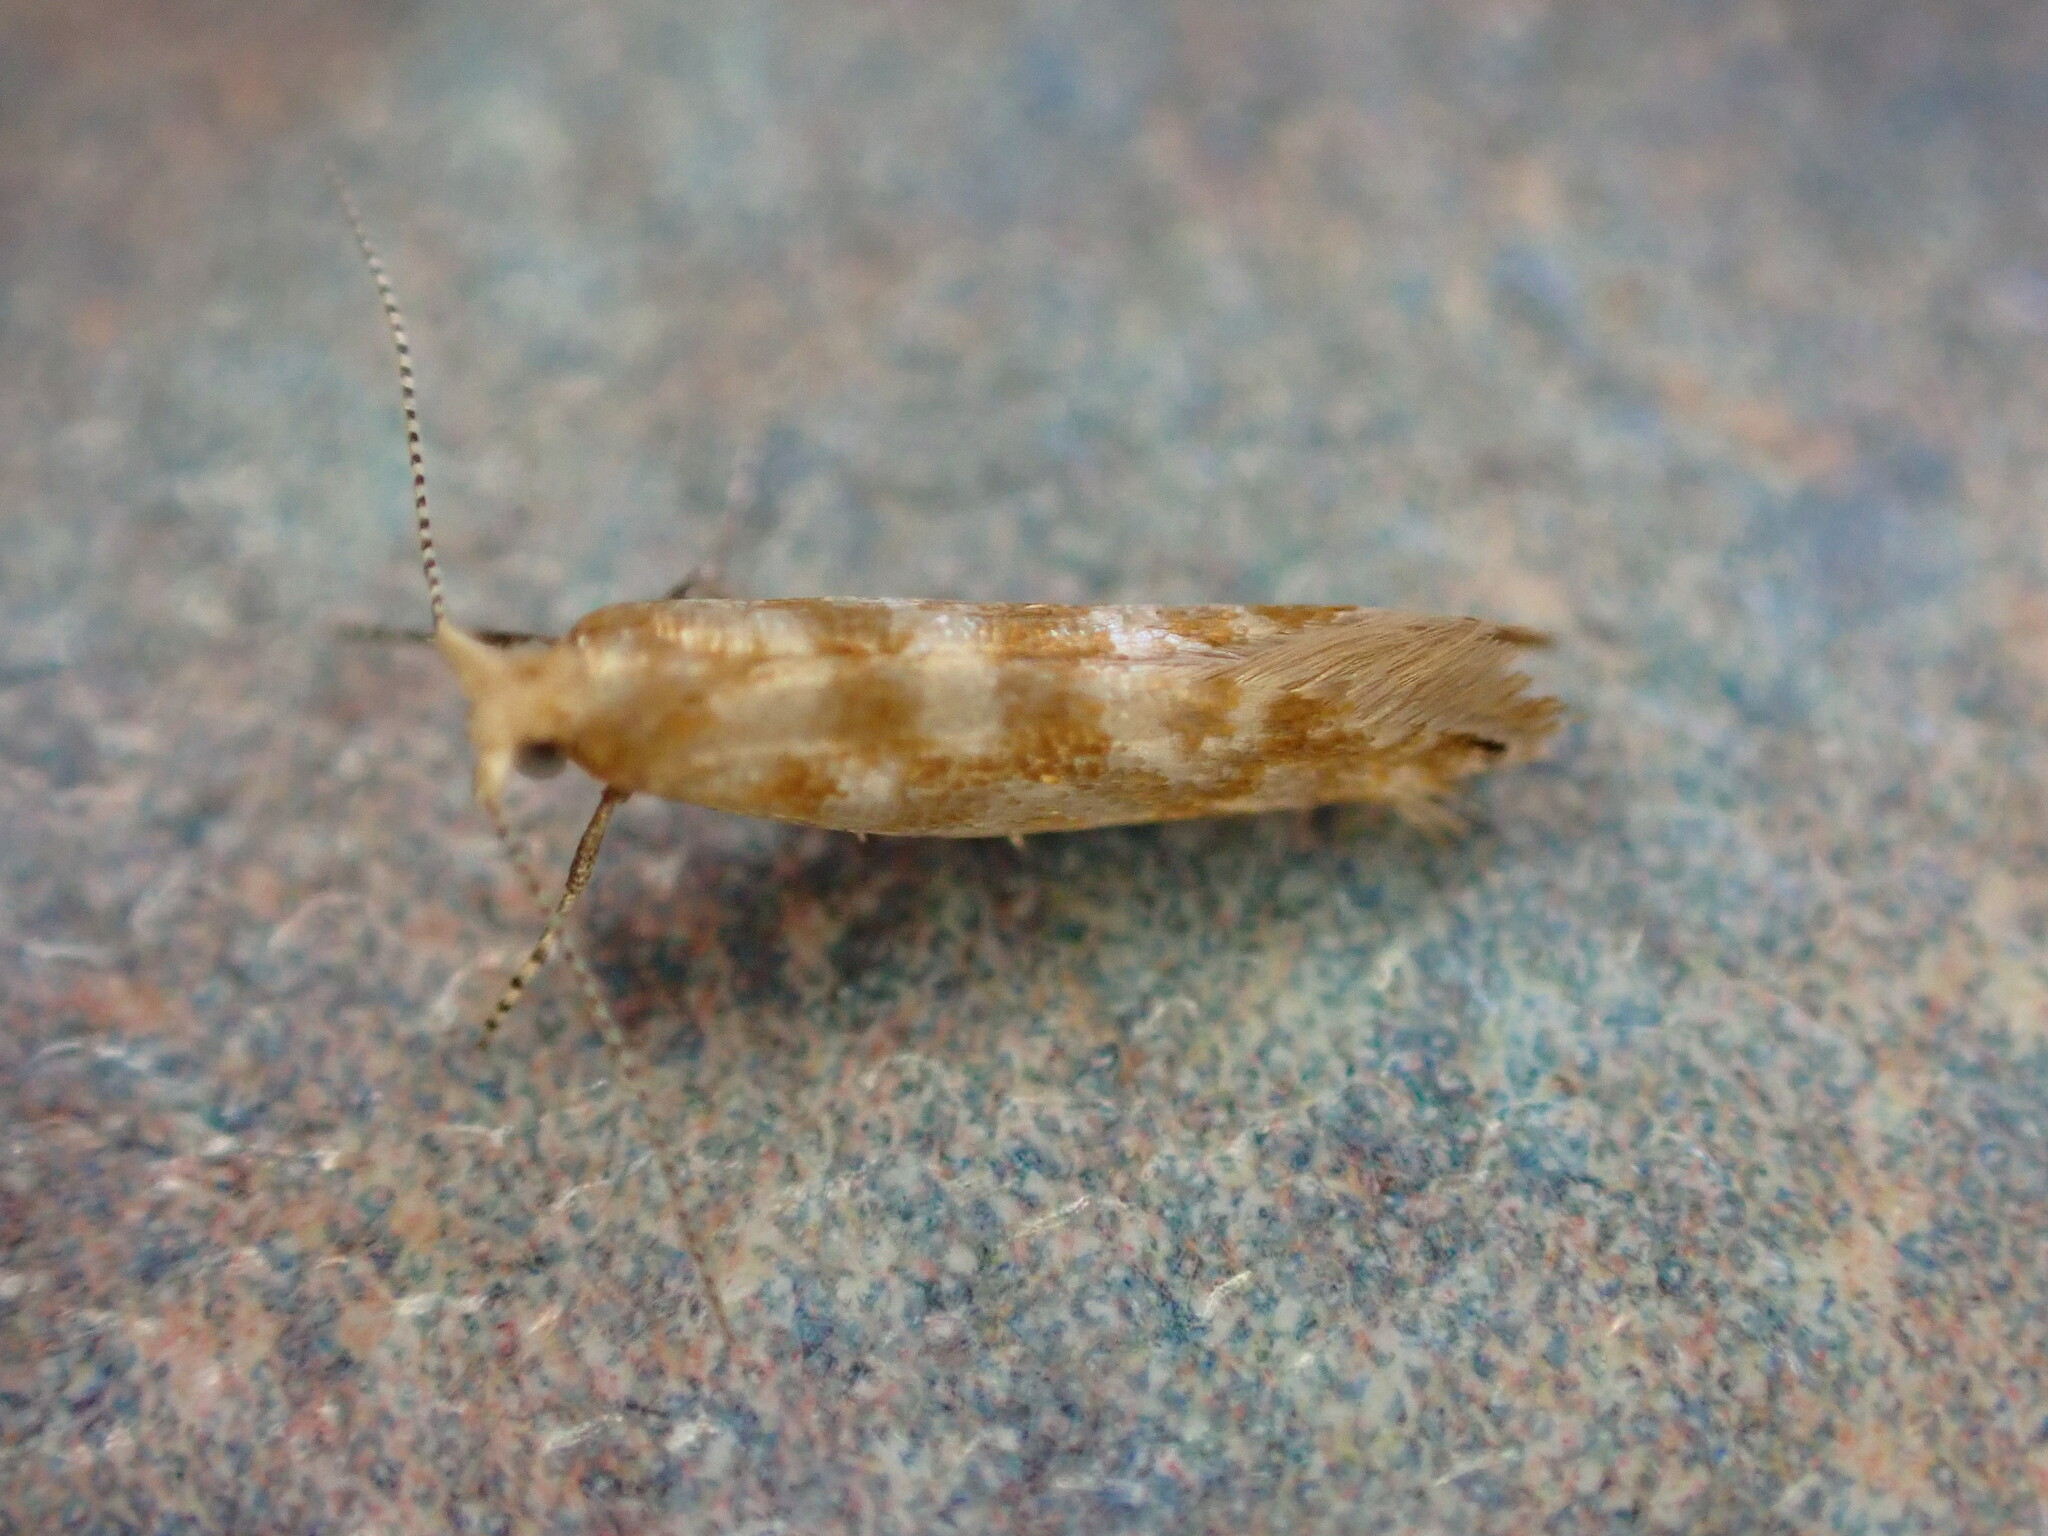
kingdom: Animalia
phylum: Arthropoda
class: Insecta
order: Lepidoptera
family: Argyresthiidae
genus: Argyresthia
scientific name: Argyresthia cupressella
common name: Cypress tip moth
